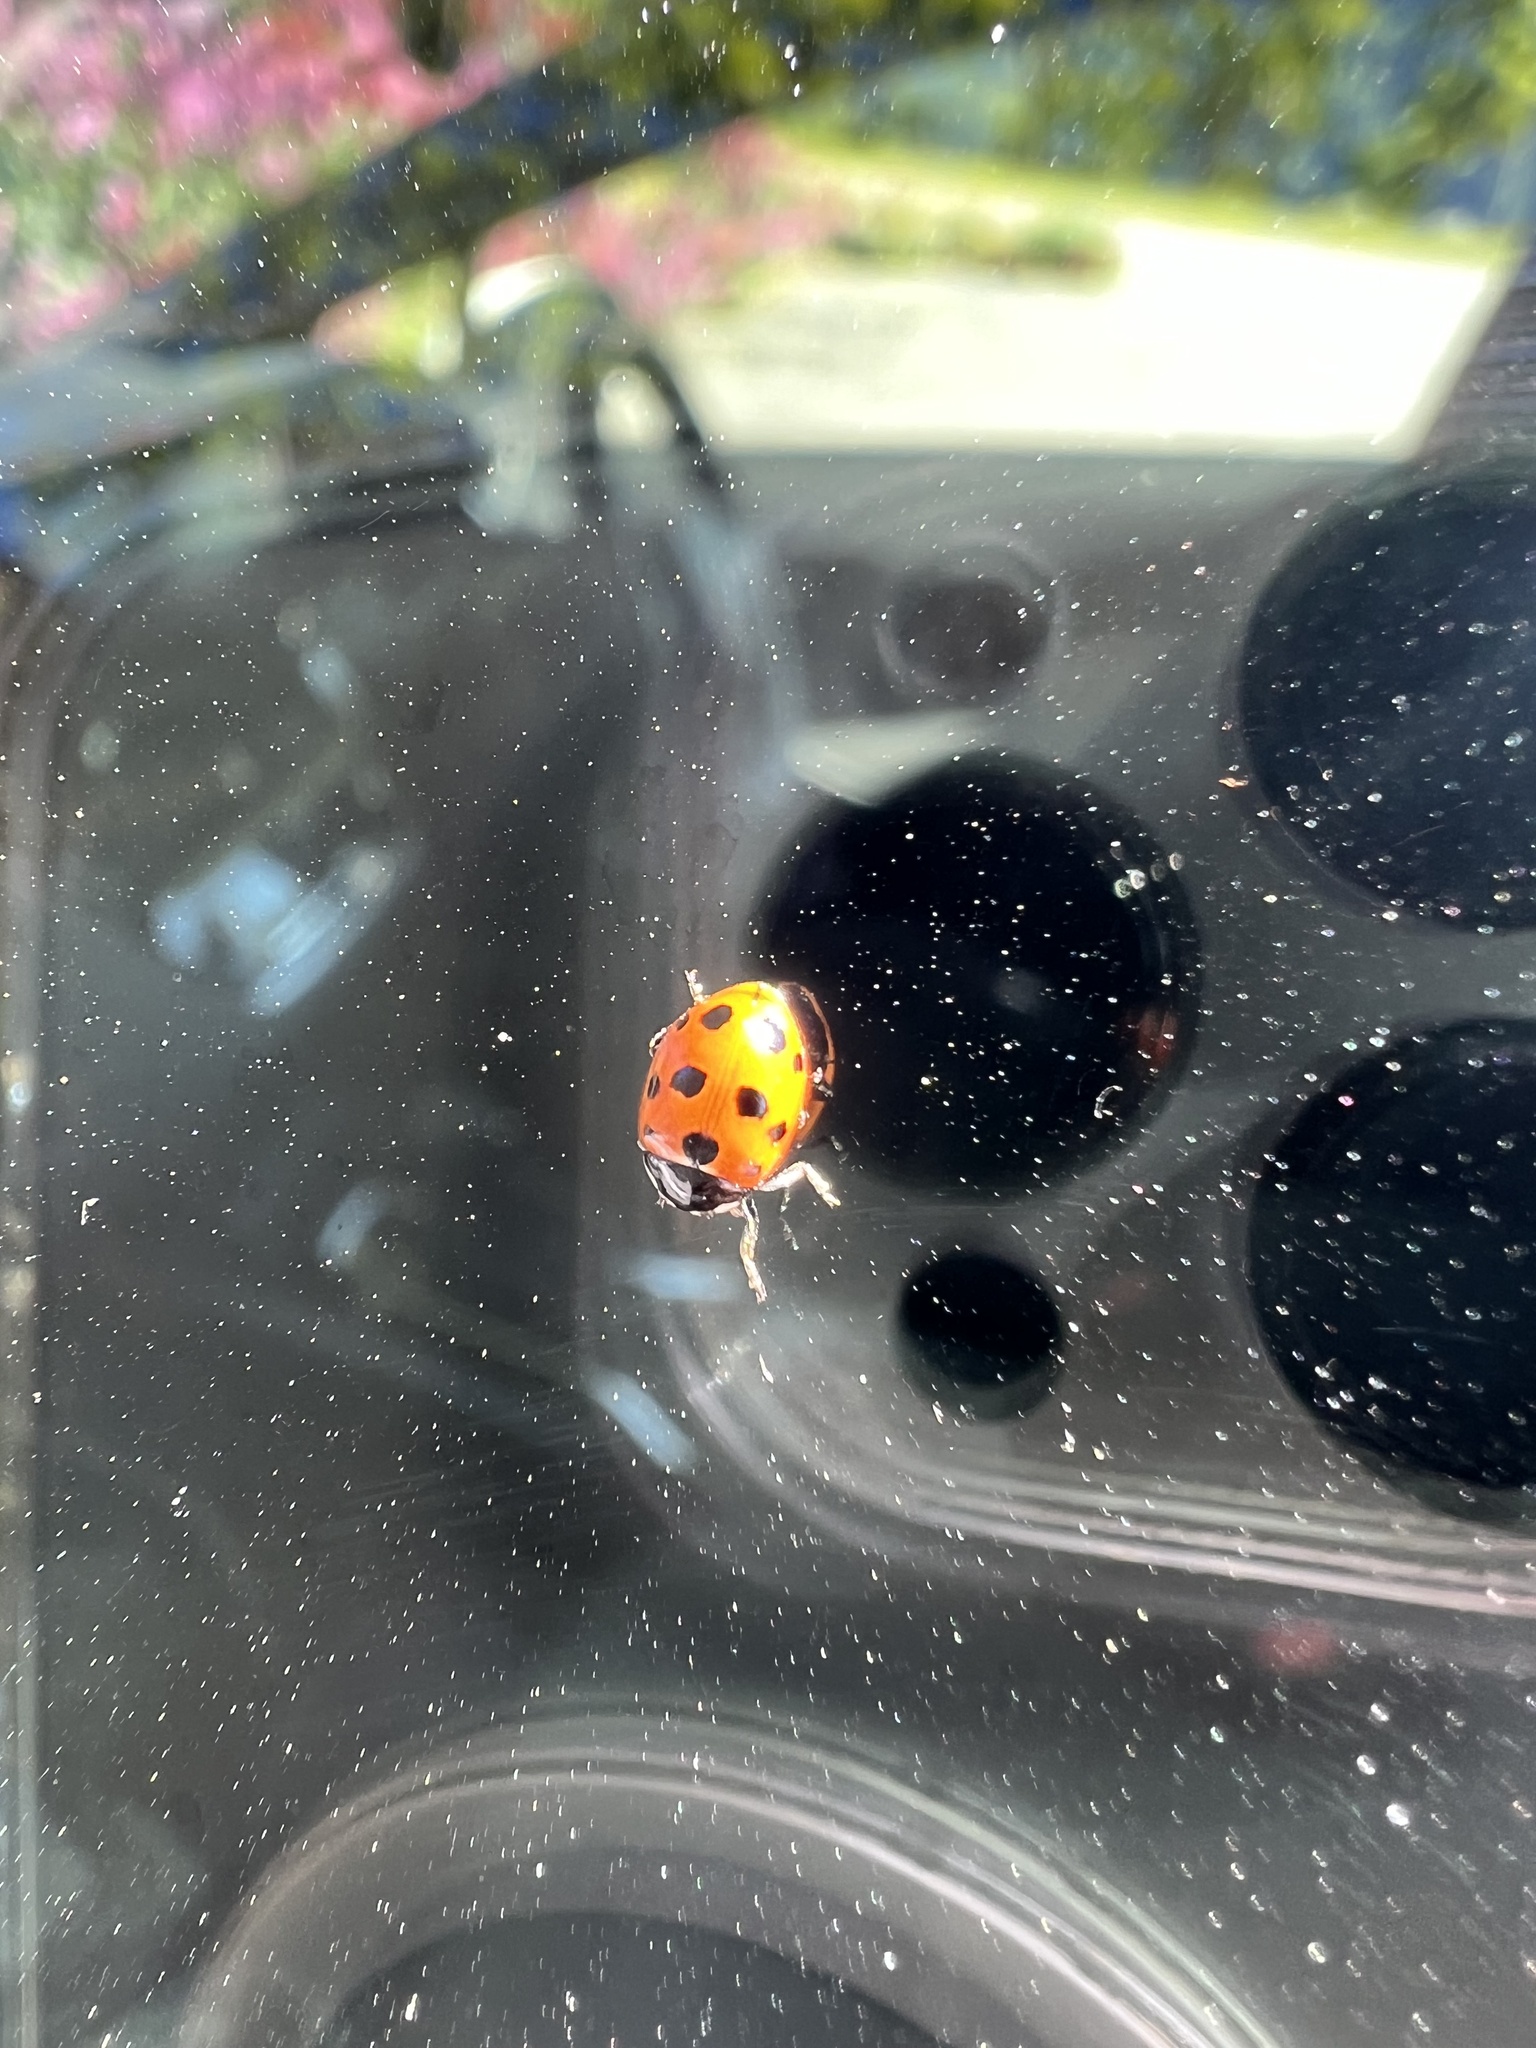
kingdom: Animalia
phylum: Arthropoda
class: Insecta
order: Coleoptera
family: Coccinellidae
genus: Coccinella
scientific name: Coccinella undecimpunctata
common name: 11-spot ladybird
